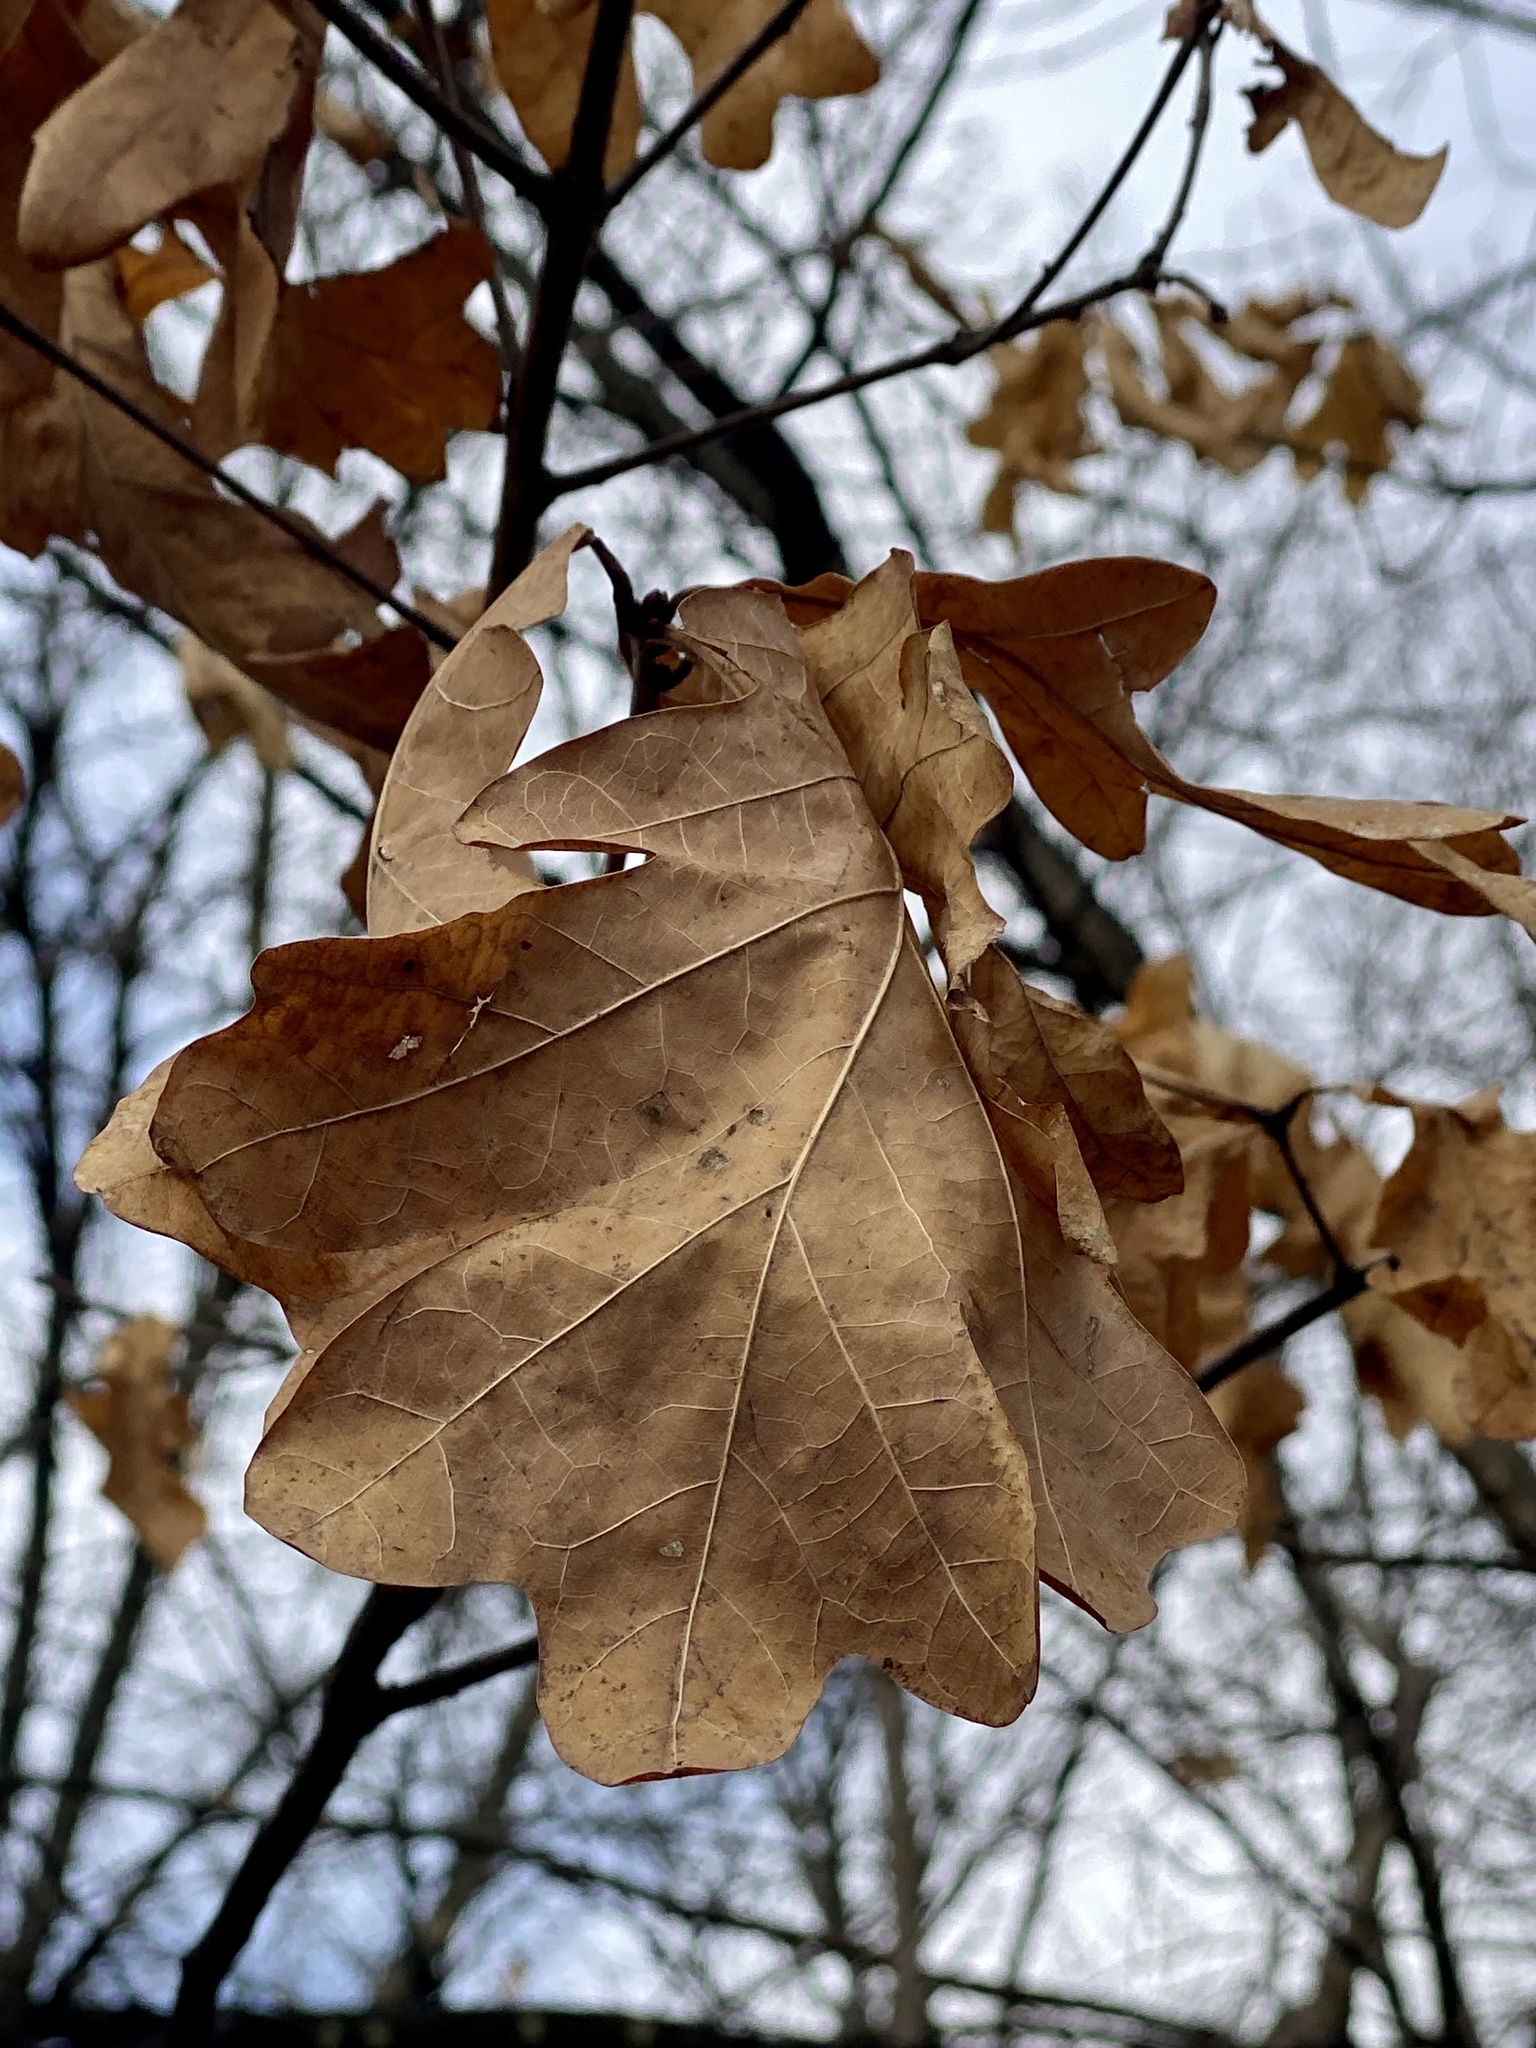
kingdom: Plantae
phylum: Tracheophyta
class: Magnoliopsida
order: Fagales
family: Fagaceae
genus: Quercus
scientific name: Quercus alba
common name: White oak
